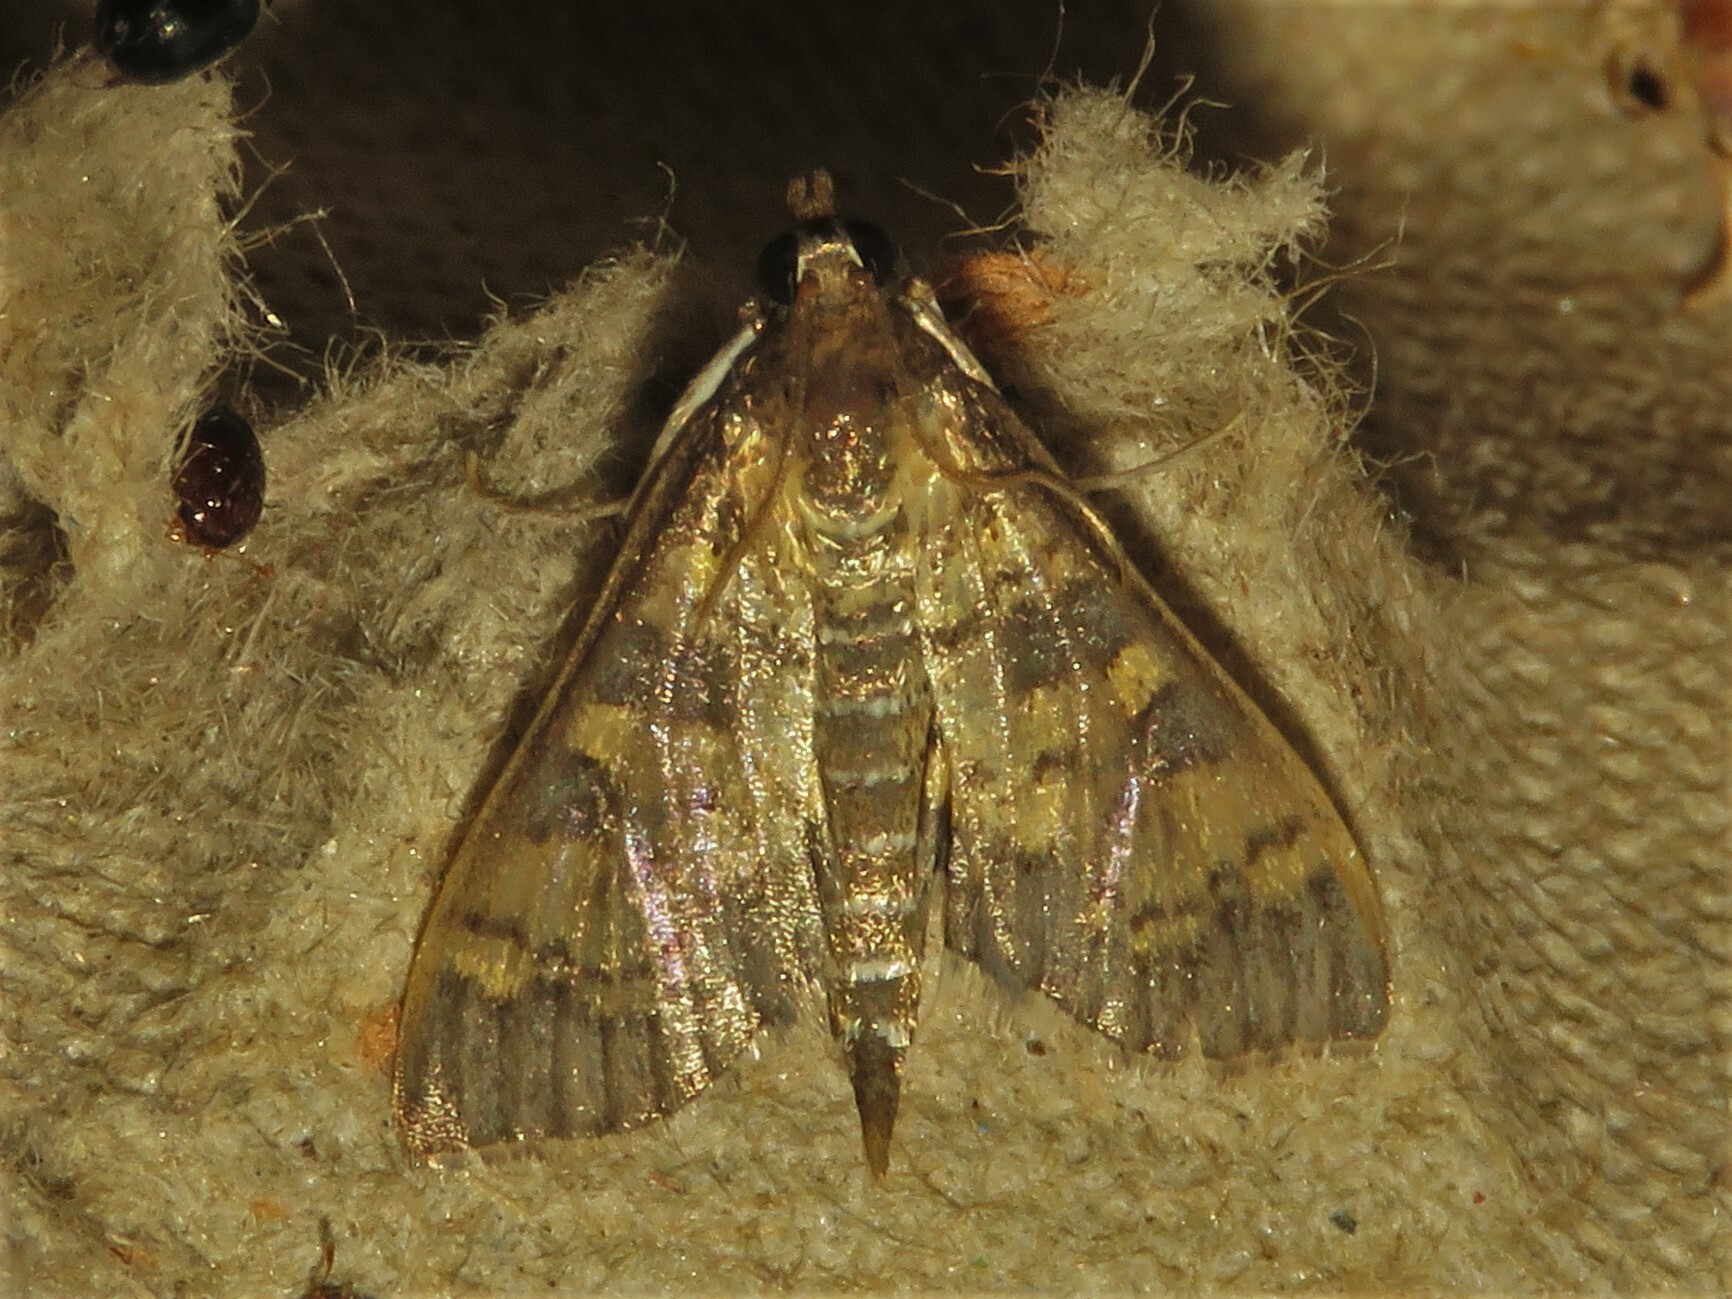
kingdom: Animalia
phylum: Arthropoda
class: Insecta
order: Lepidoptera
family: Crambidae
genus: Epipagis
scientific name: Epipagis adipaloides
